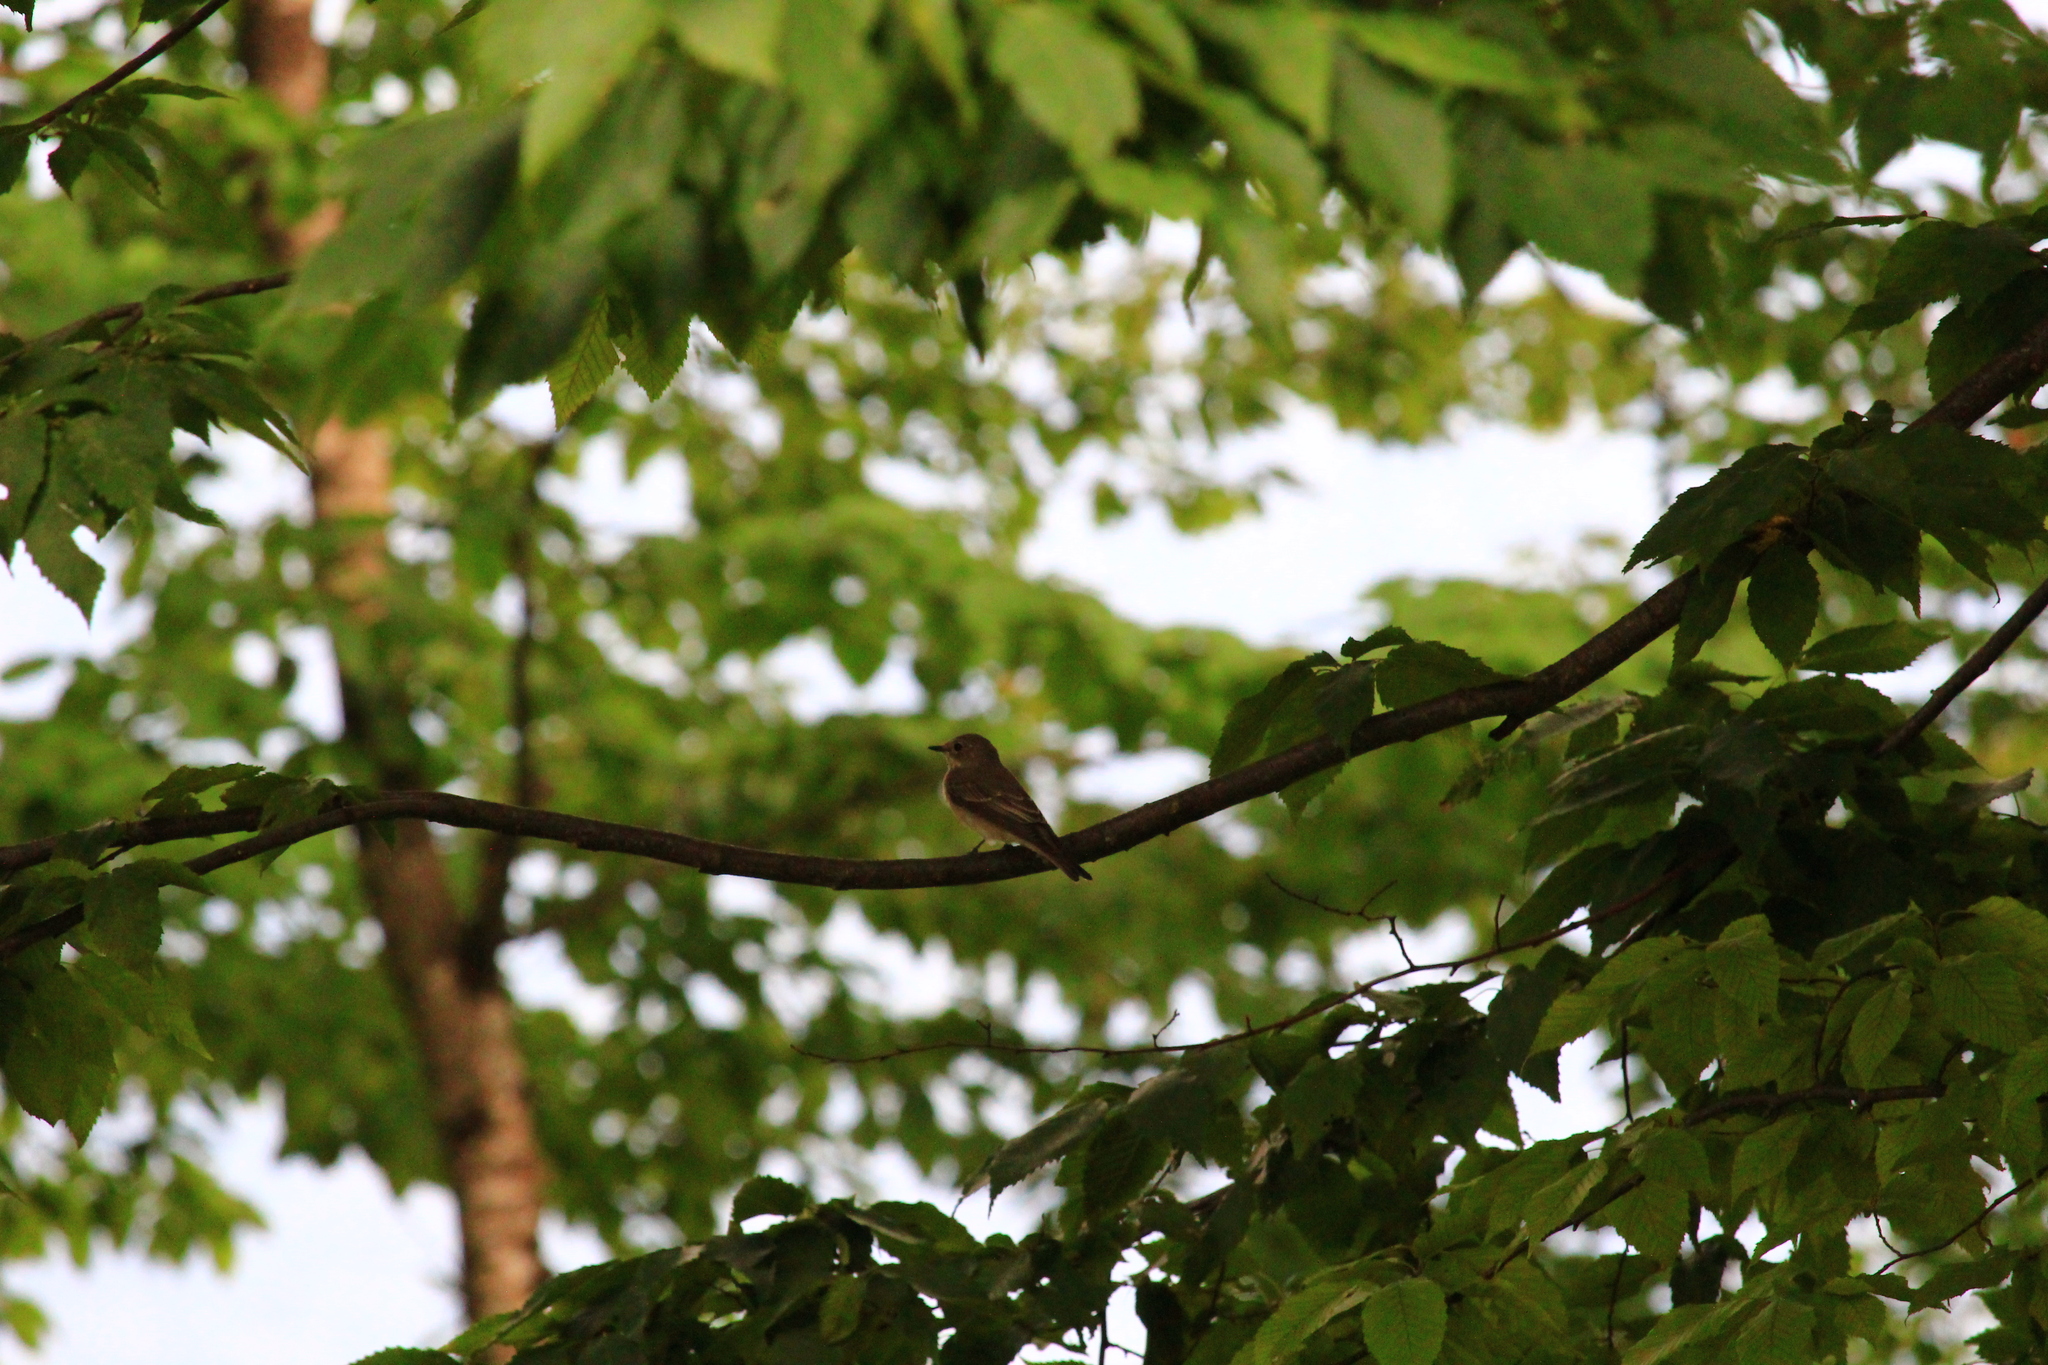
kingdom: Animalia
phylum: Chordata
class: Aves
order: Passeriformes
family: Muscicapidae
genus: Muscicapa
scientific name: Muscicapa striata
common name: Spotted flycatcher
